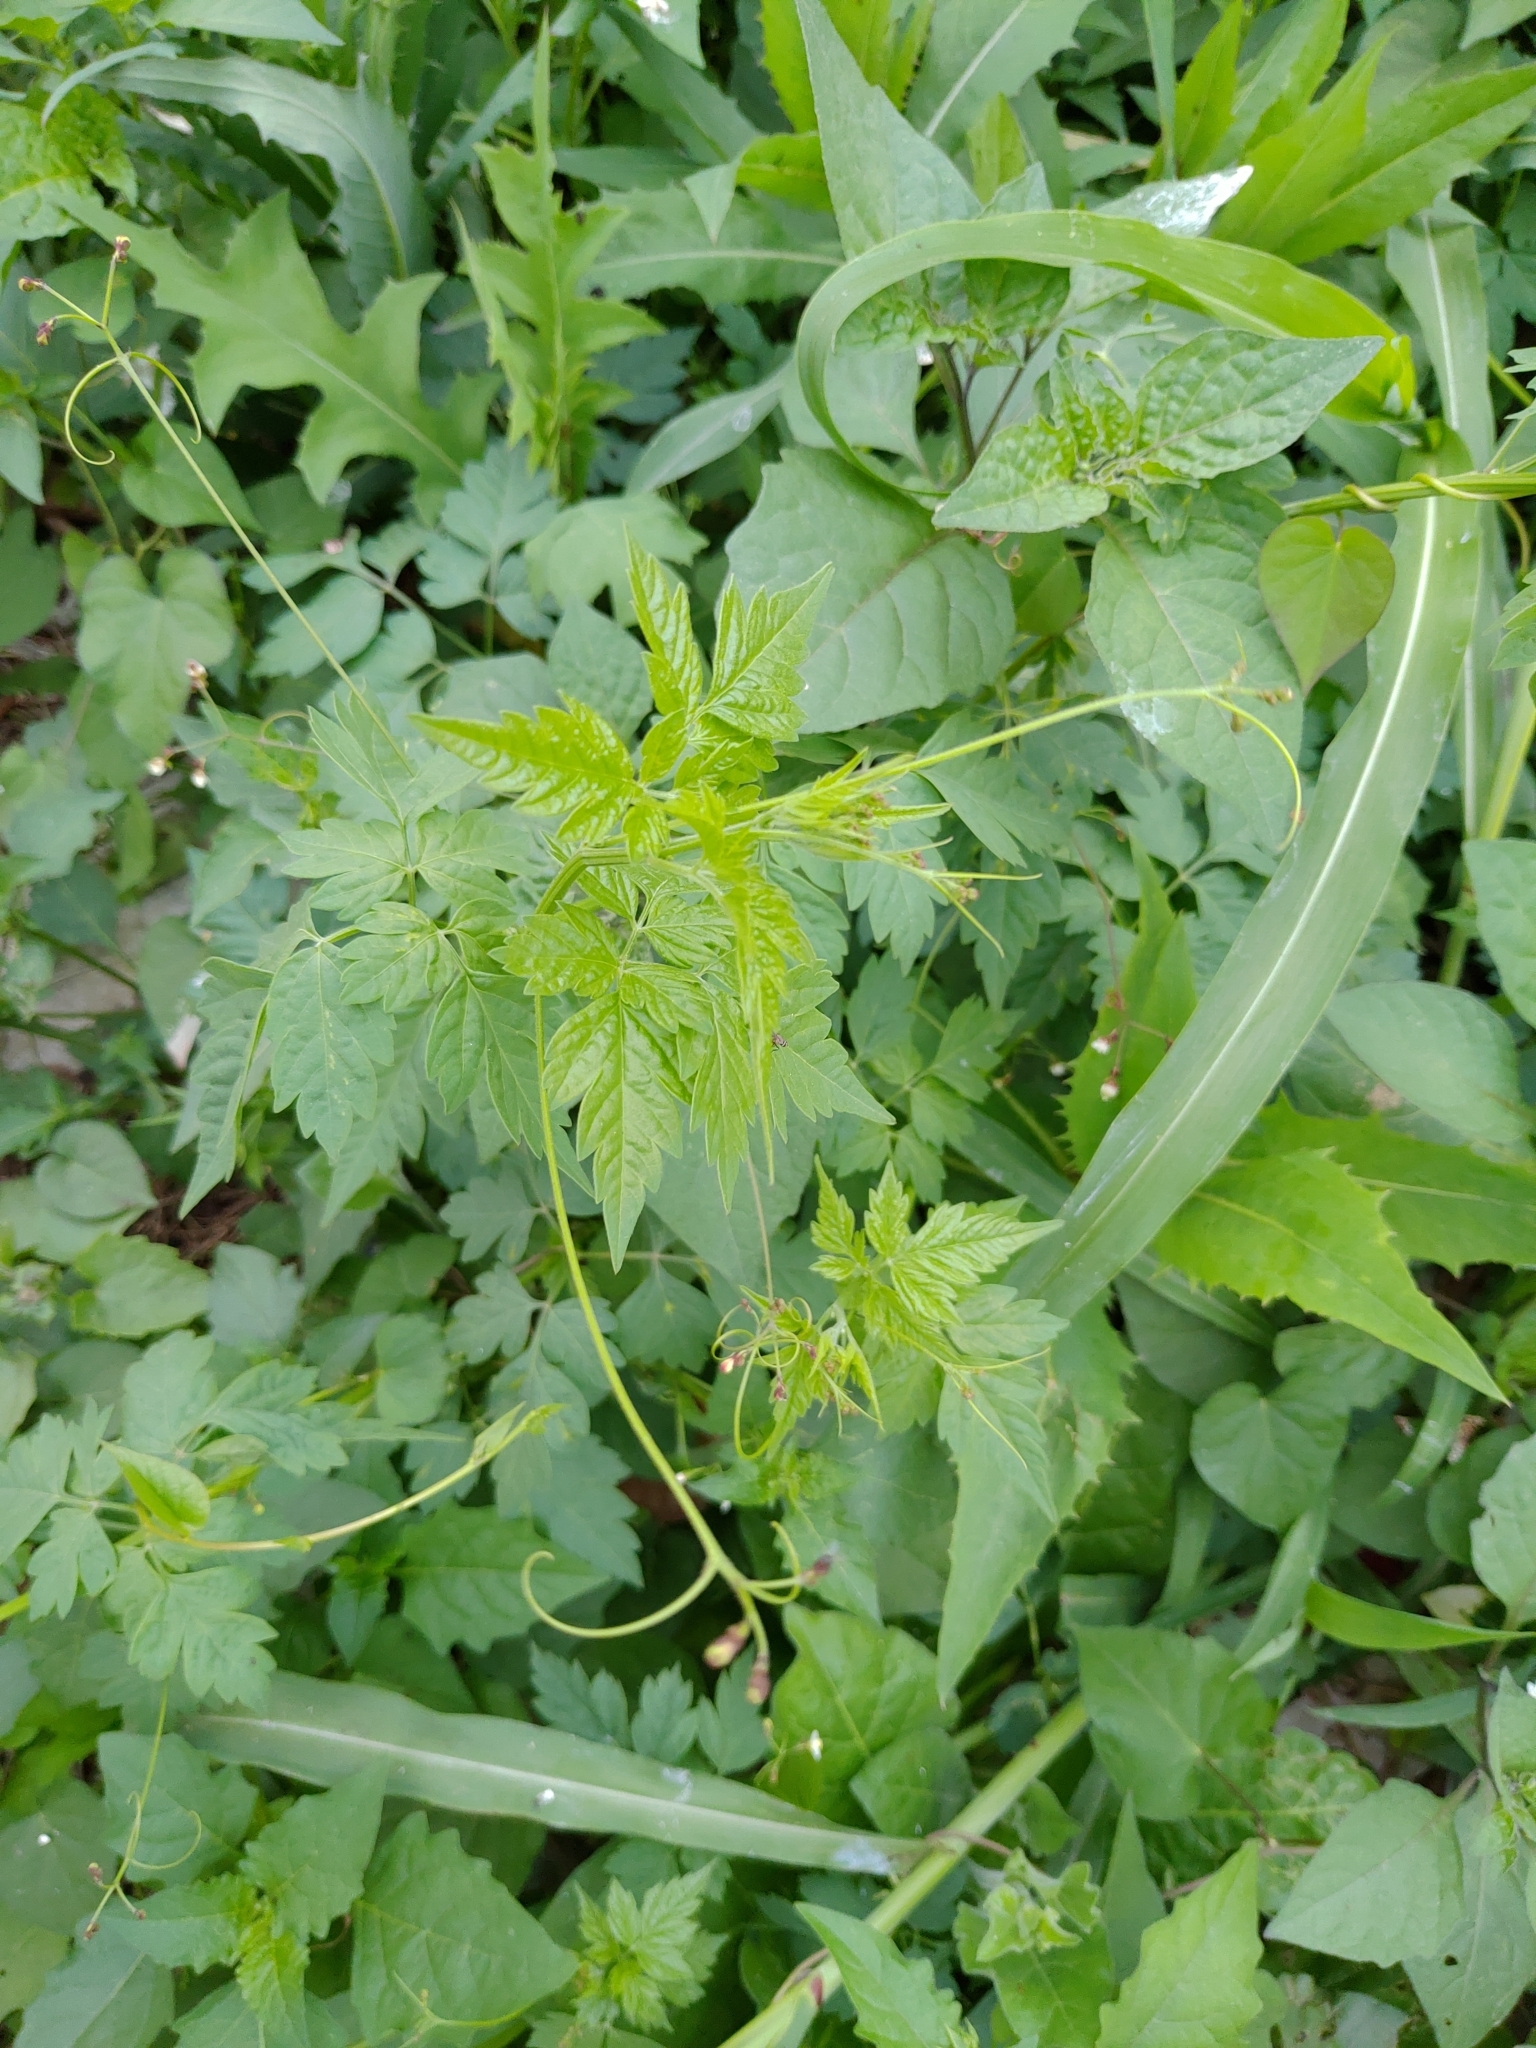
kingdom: Plantae
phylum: Tracheophyta
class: Magnoliopsida
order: Sapindales
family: Sapindaceae
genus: Cardiospermum
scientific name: Cardiospermum halicacabum
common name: Balloon vine
